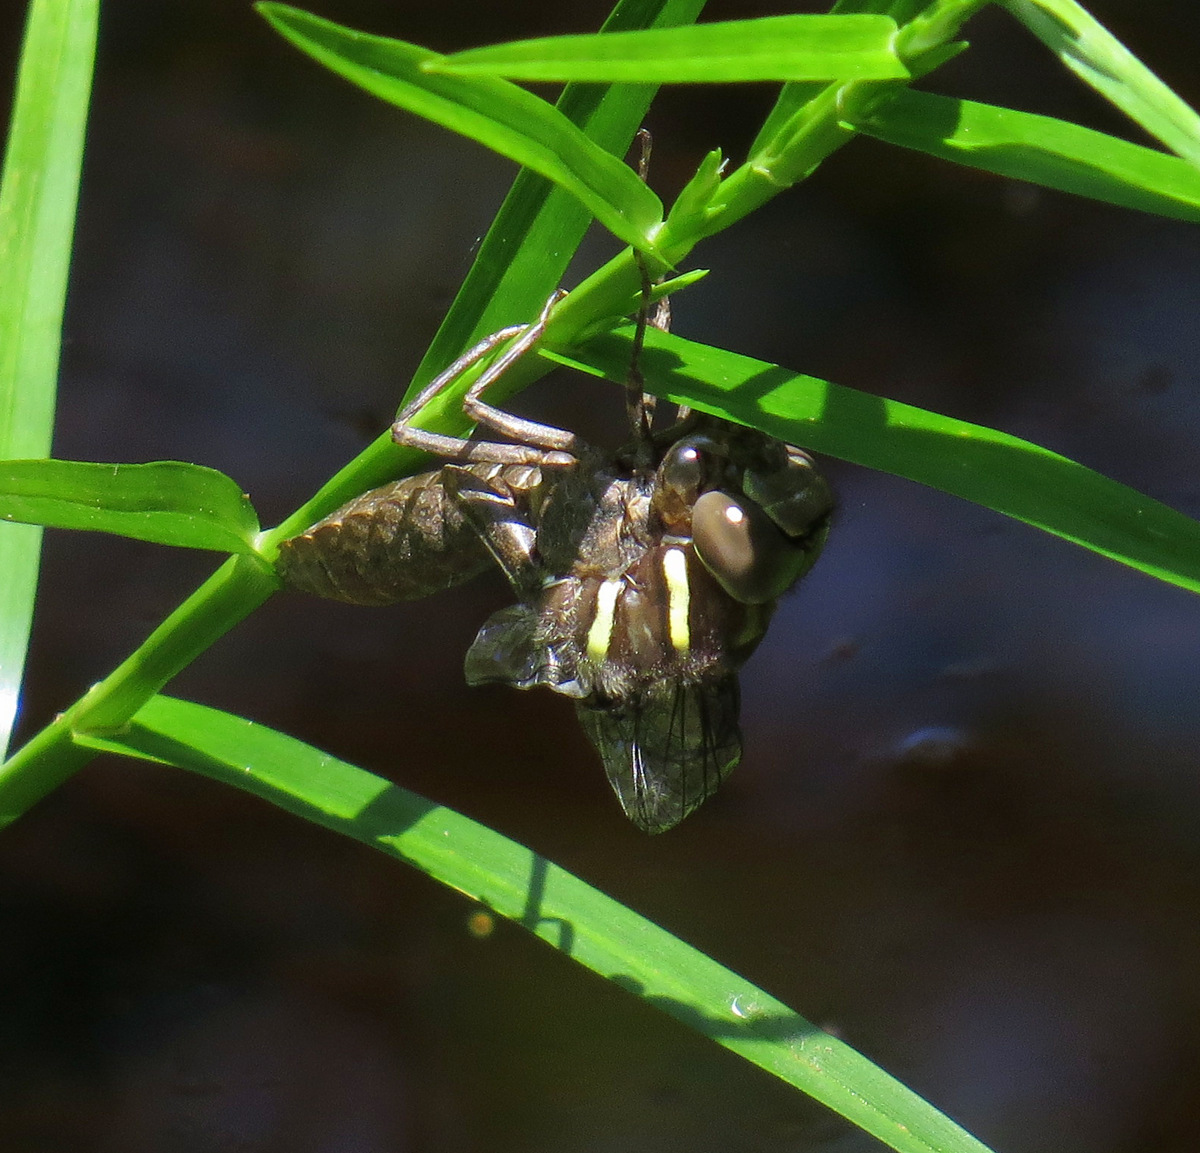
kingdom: Animalia
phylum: Arthropoda
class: Insecta
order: Odonata
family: Aeshnidae
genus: Aeshna
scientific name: Aeshna tuberculifera
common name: Aeschne à tubercules
